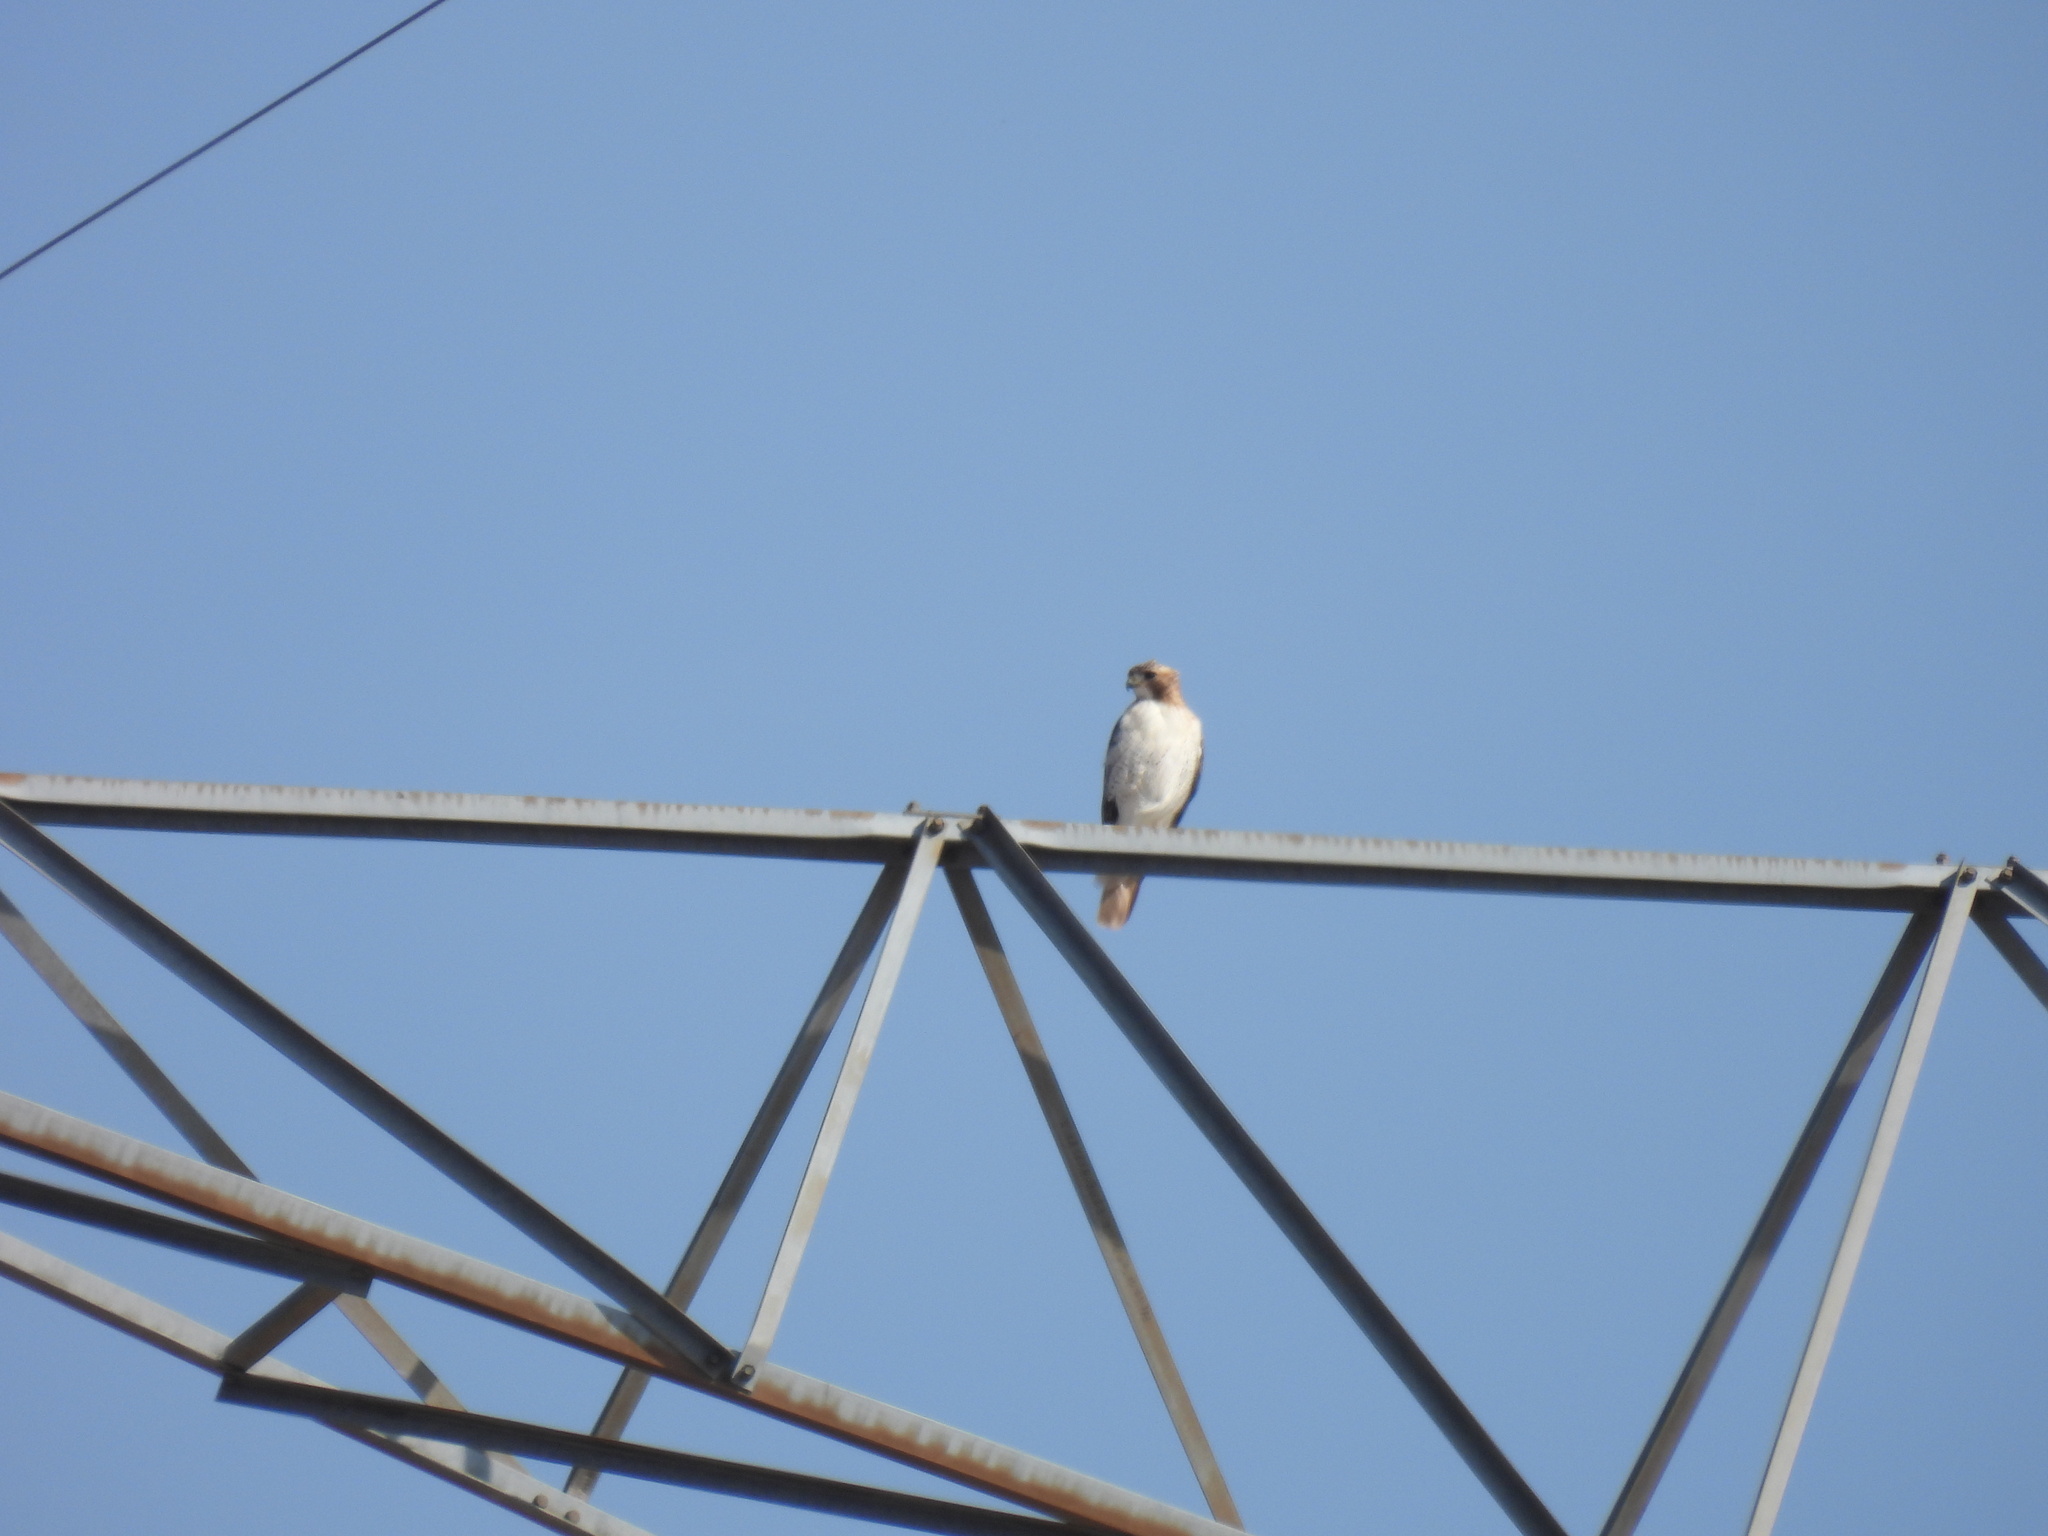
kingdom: Animalia
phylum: Chordata
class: Aves
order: Accipitriformes
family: Accipitridae
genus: Buteo
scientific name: Buteo swainsoni
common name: Swainson's hawk
